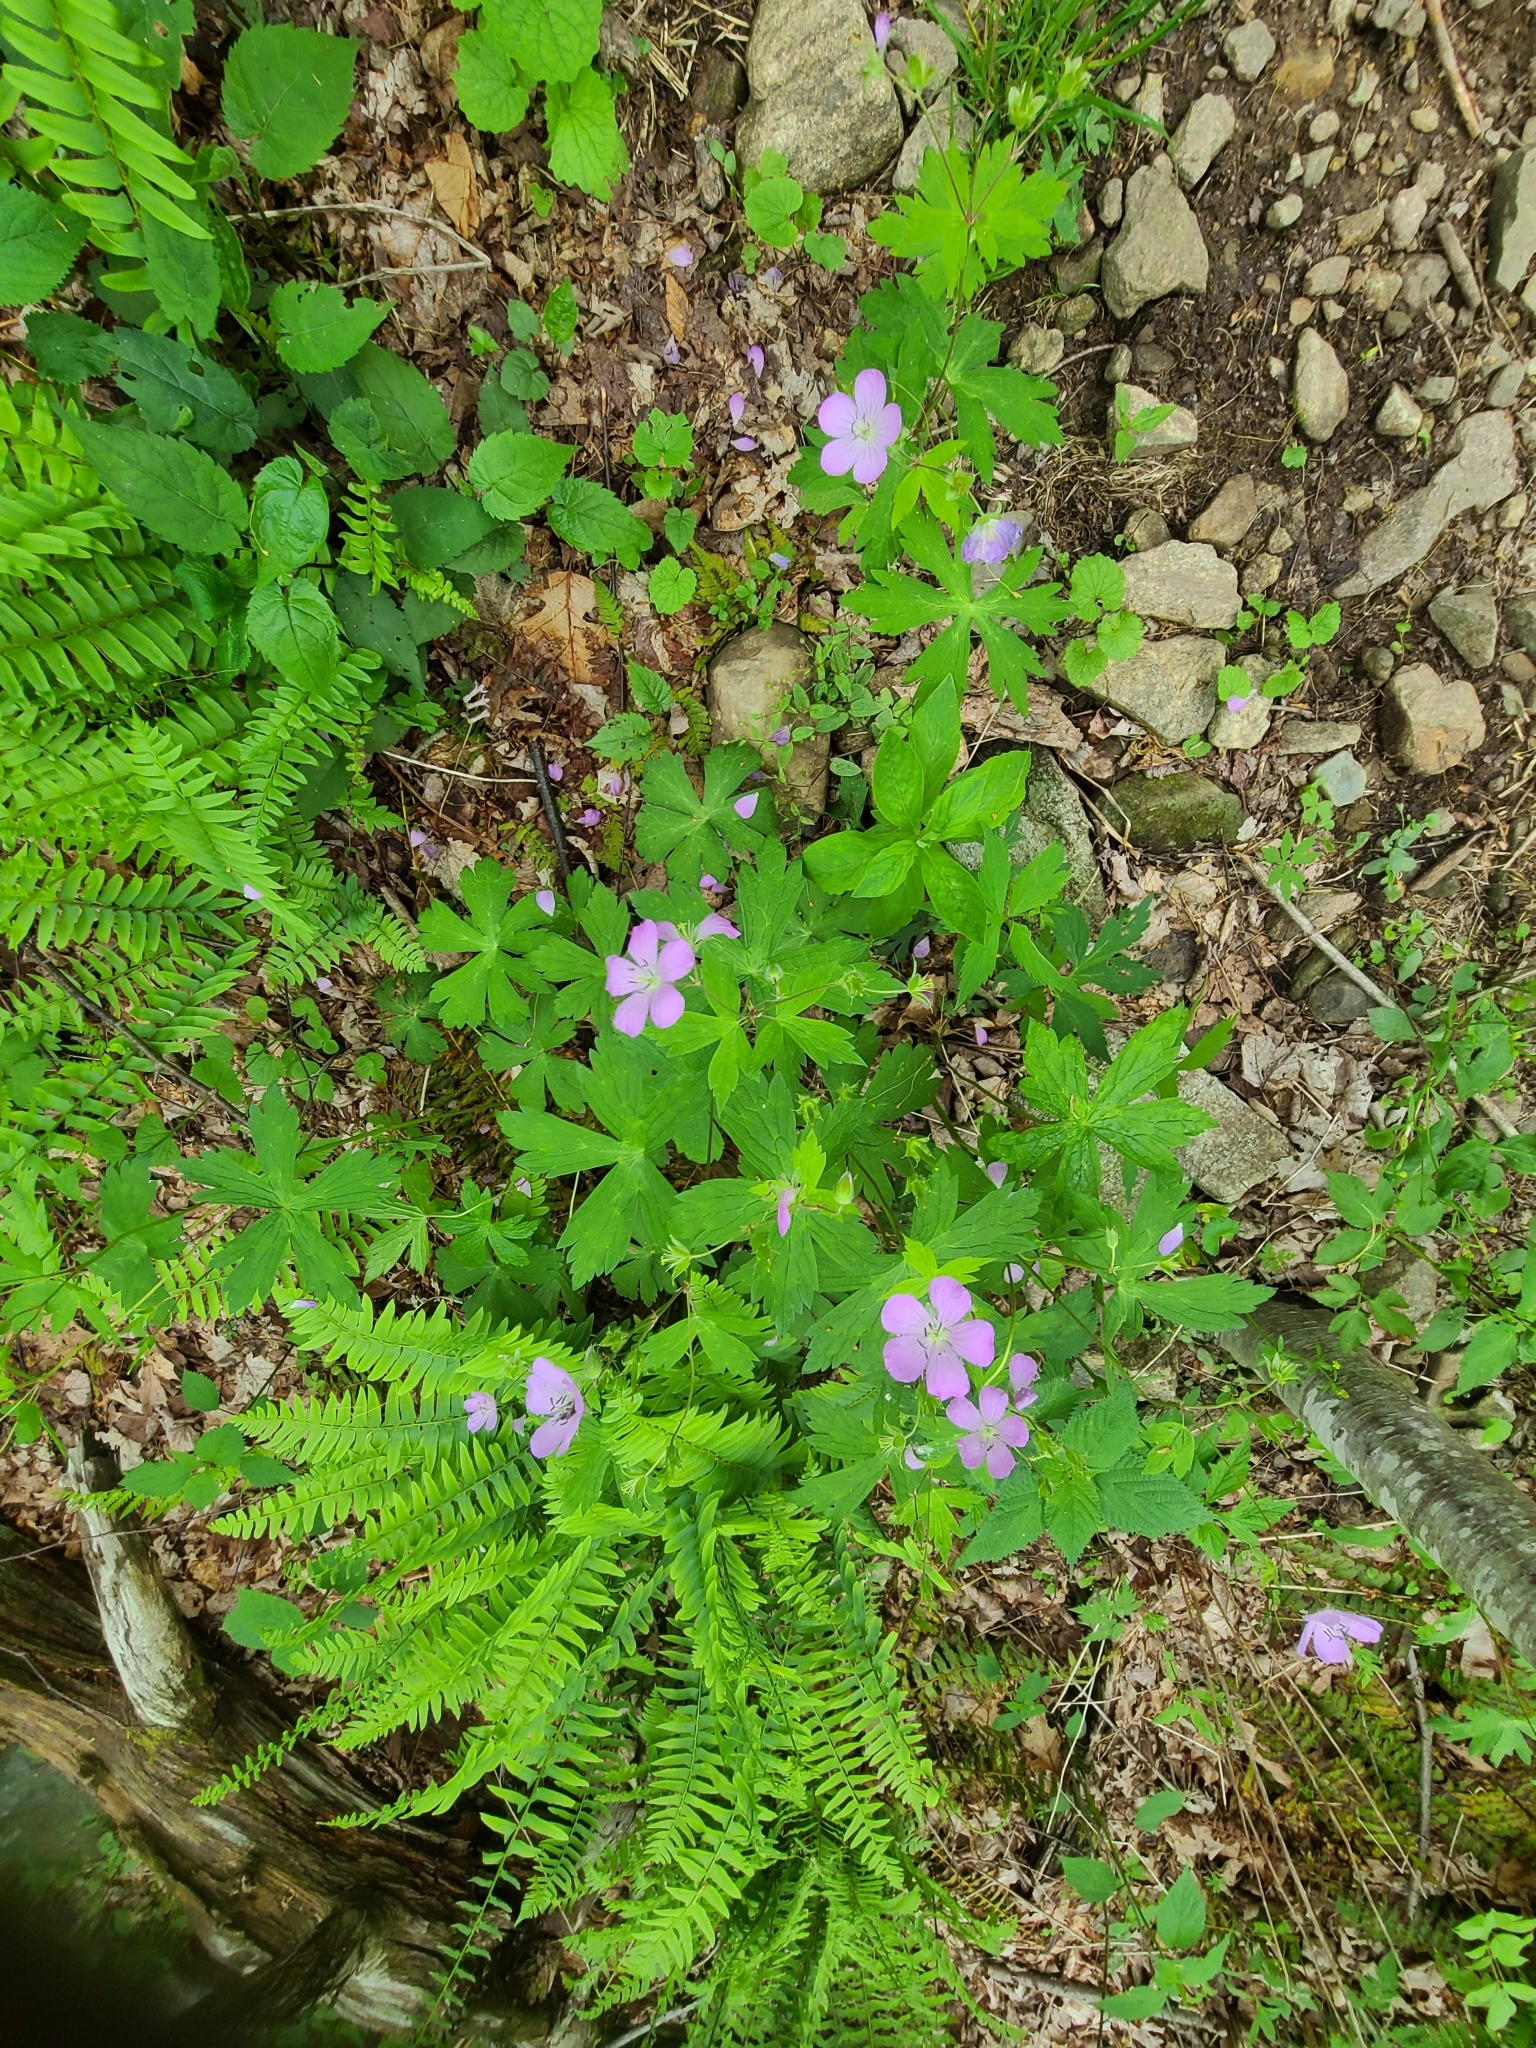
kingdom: Plantae
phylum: Tracheophyta
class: Magnoliopsida
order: Geraniales
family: Geraniaceae
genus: Geranium
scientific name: Geranium maculatum
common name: Spotted geranium
